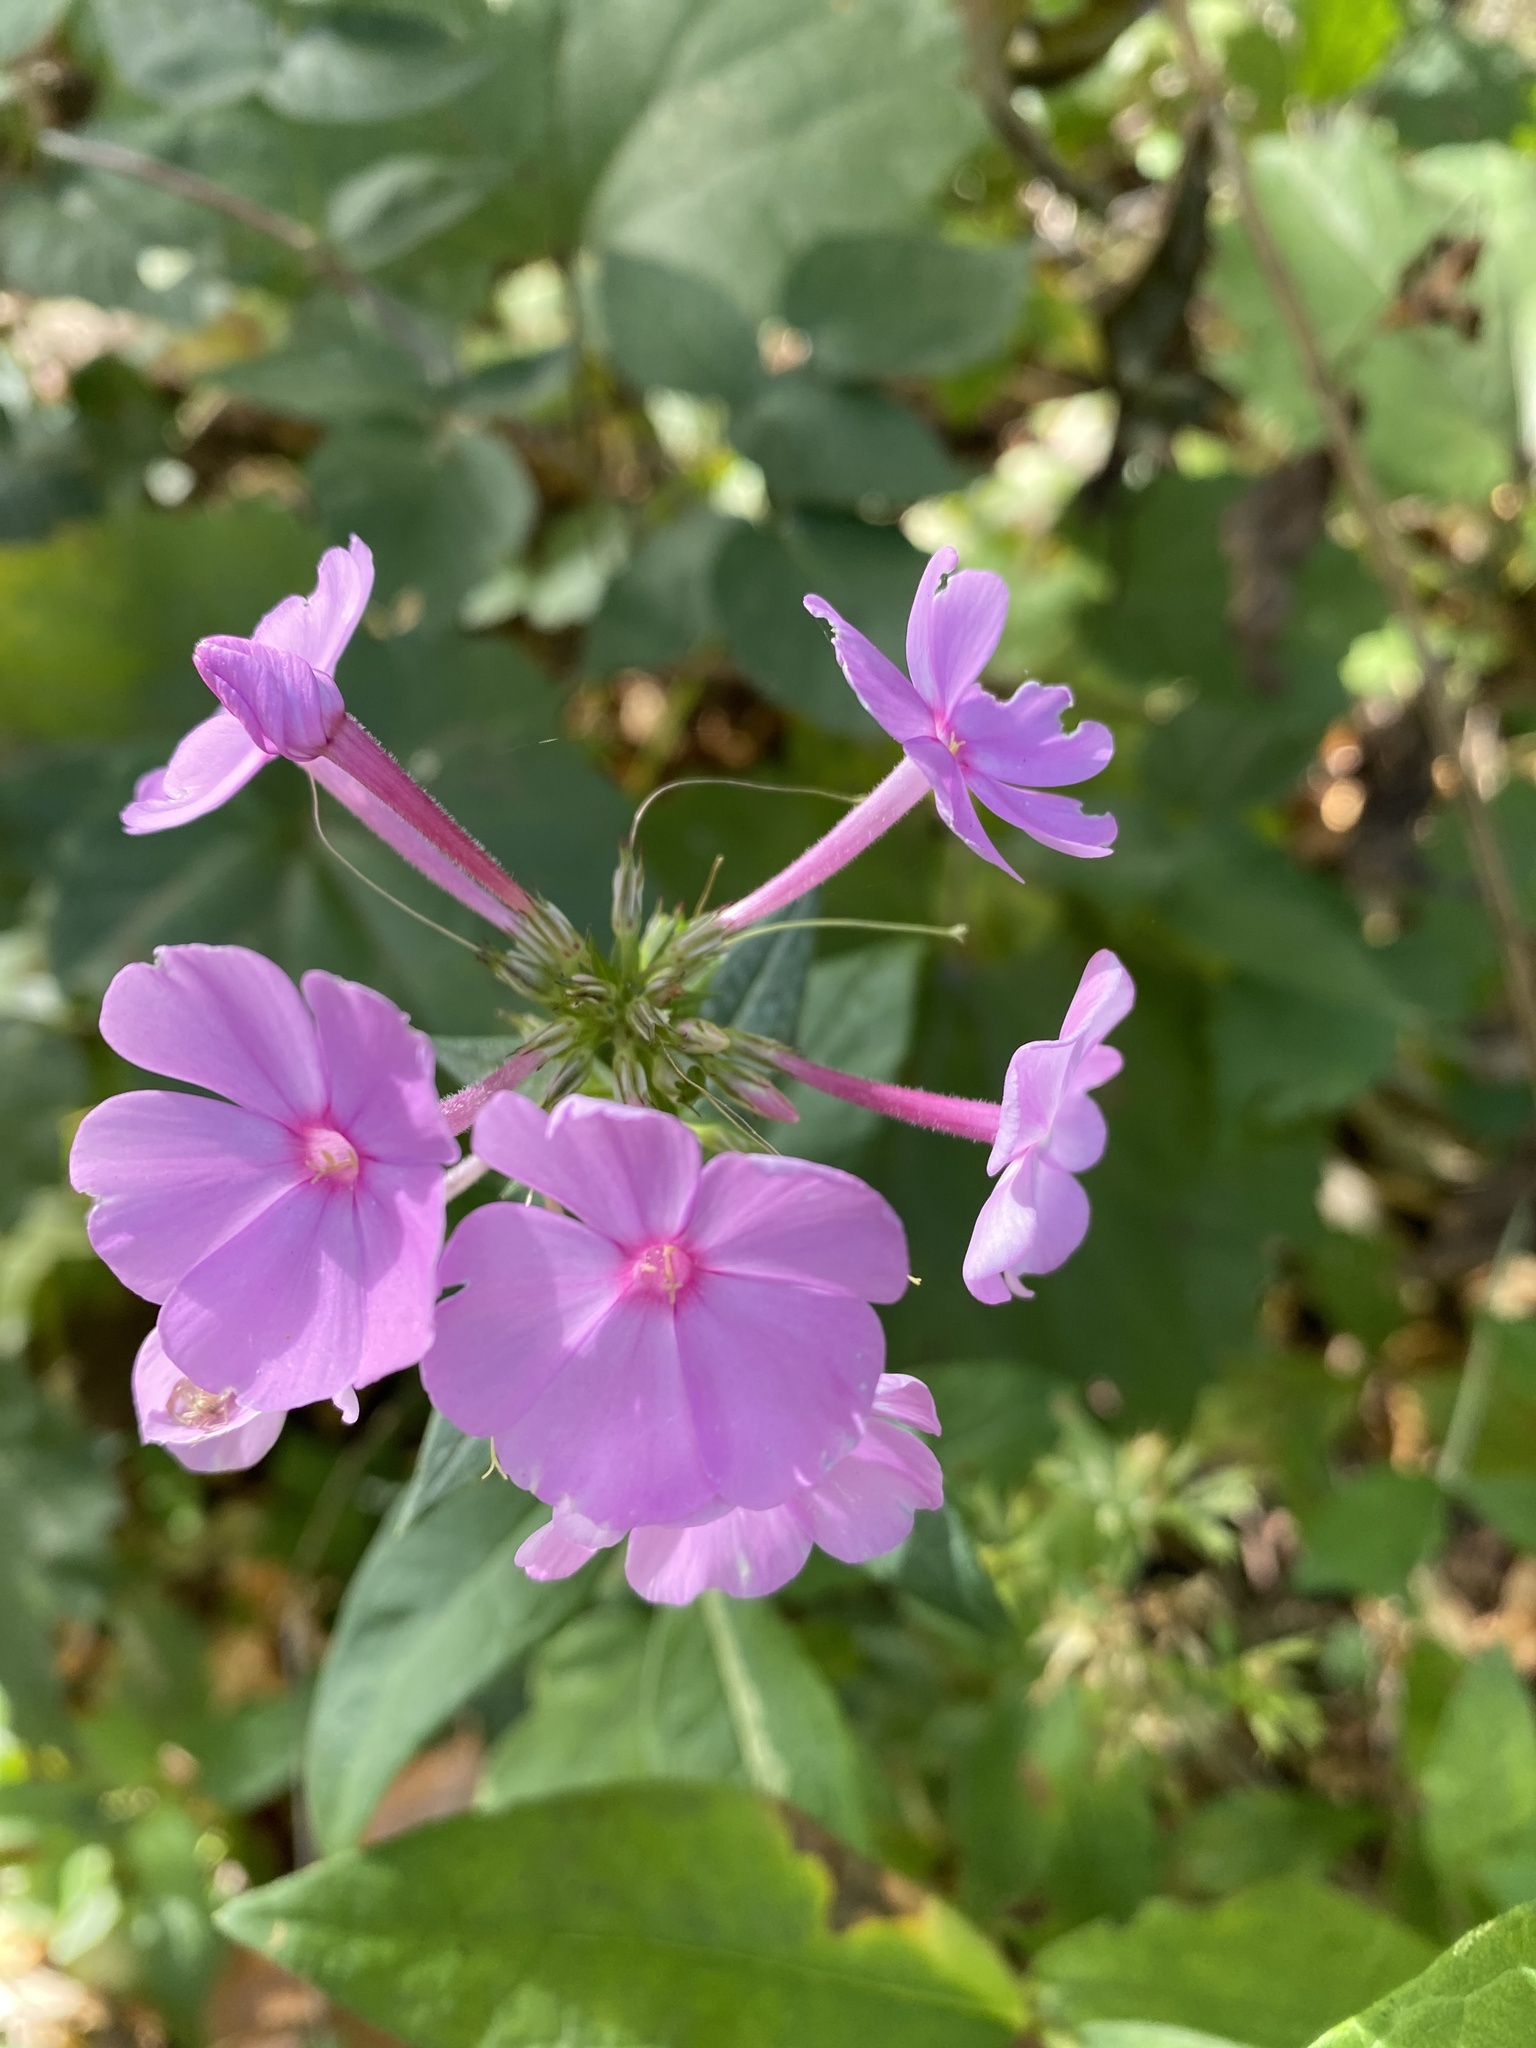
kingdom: Plantae
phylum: Tracheophyta
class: Magnoliopsida
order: Ericales
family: Polemoniaceae
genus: Phlox
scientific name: Phlox paniculata
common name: Fall phlox
